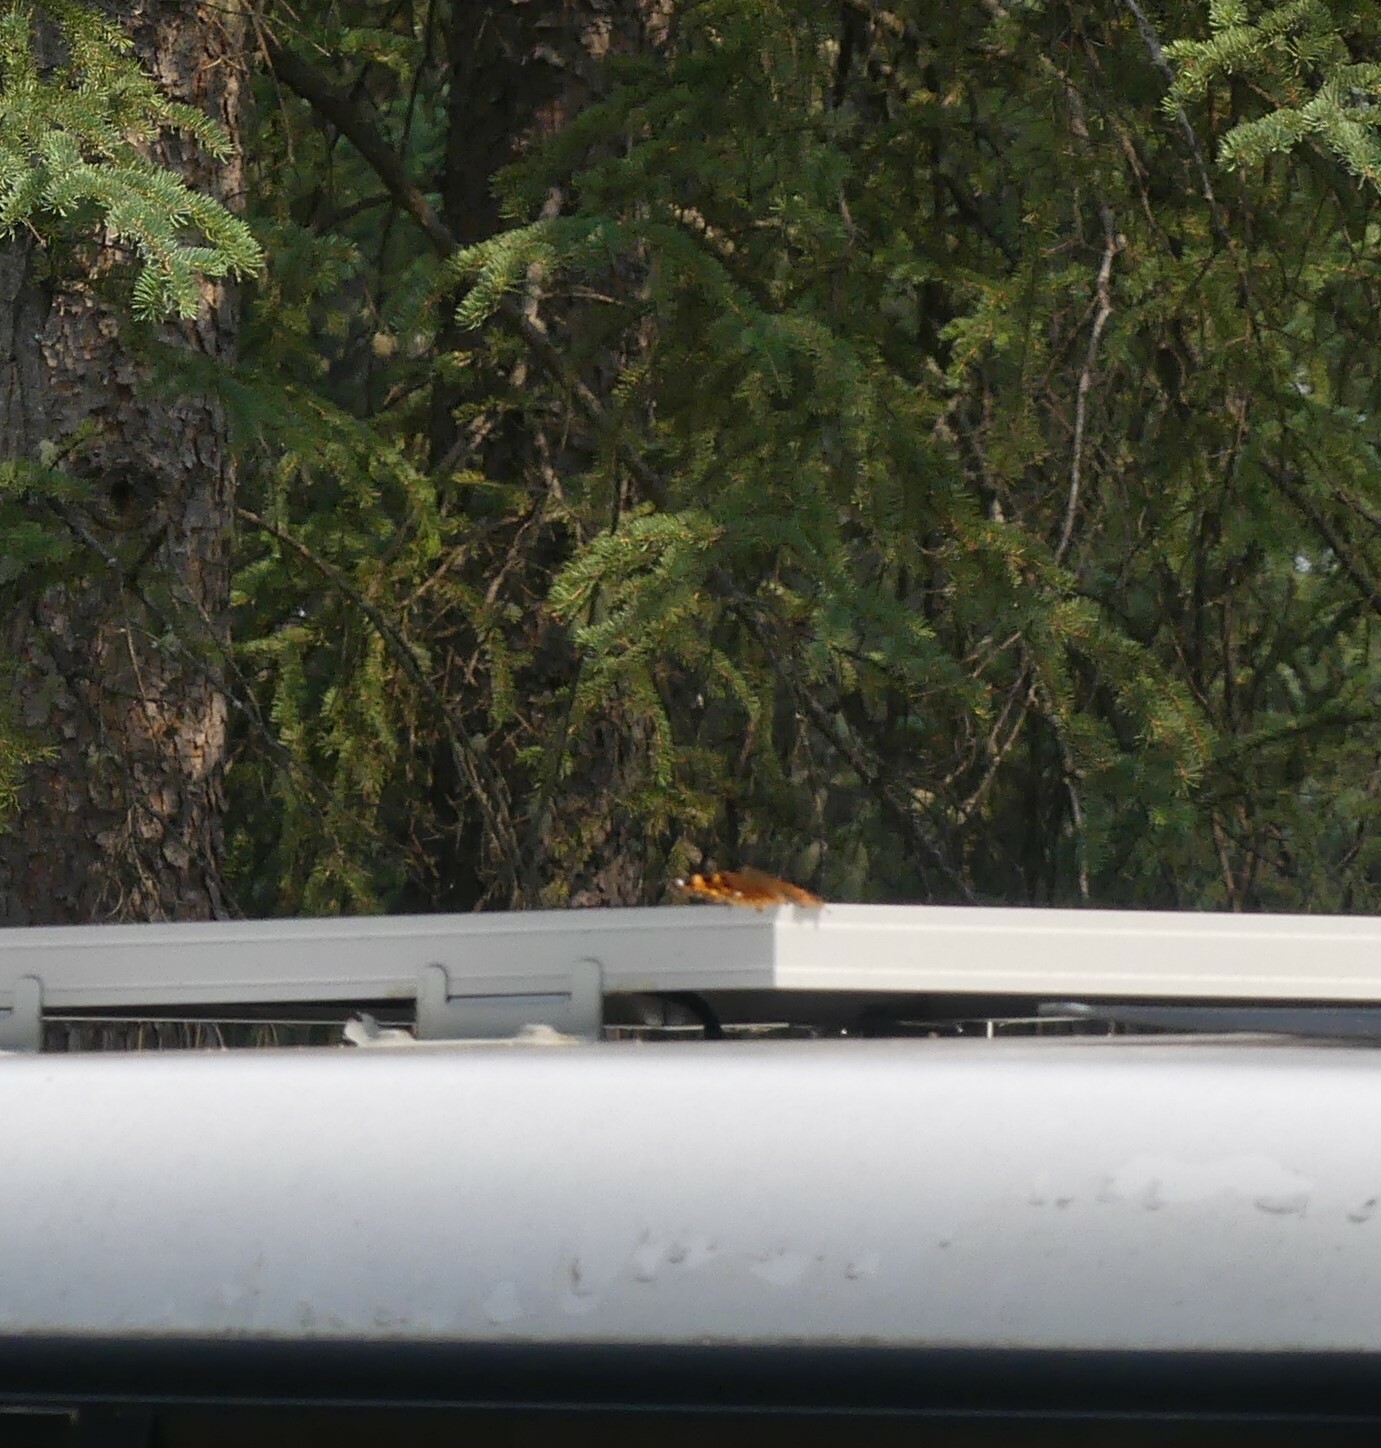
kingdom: Animalia
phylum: Arthropoda
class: Insecta
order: Lepidoptera
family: Nymphalidae
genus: Polygonia
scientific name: Polygonia vaualbum
